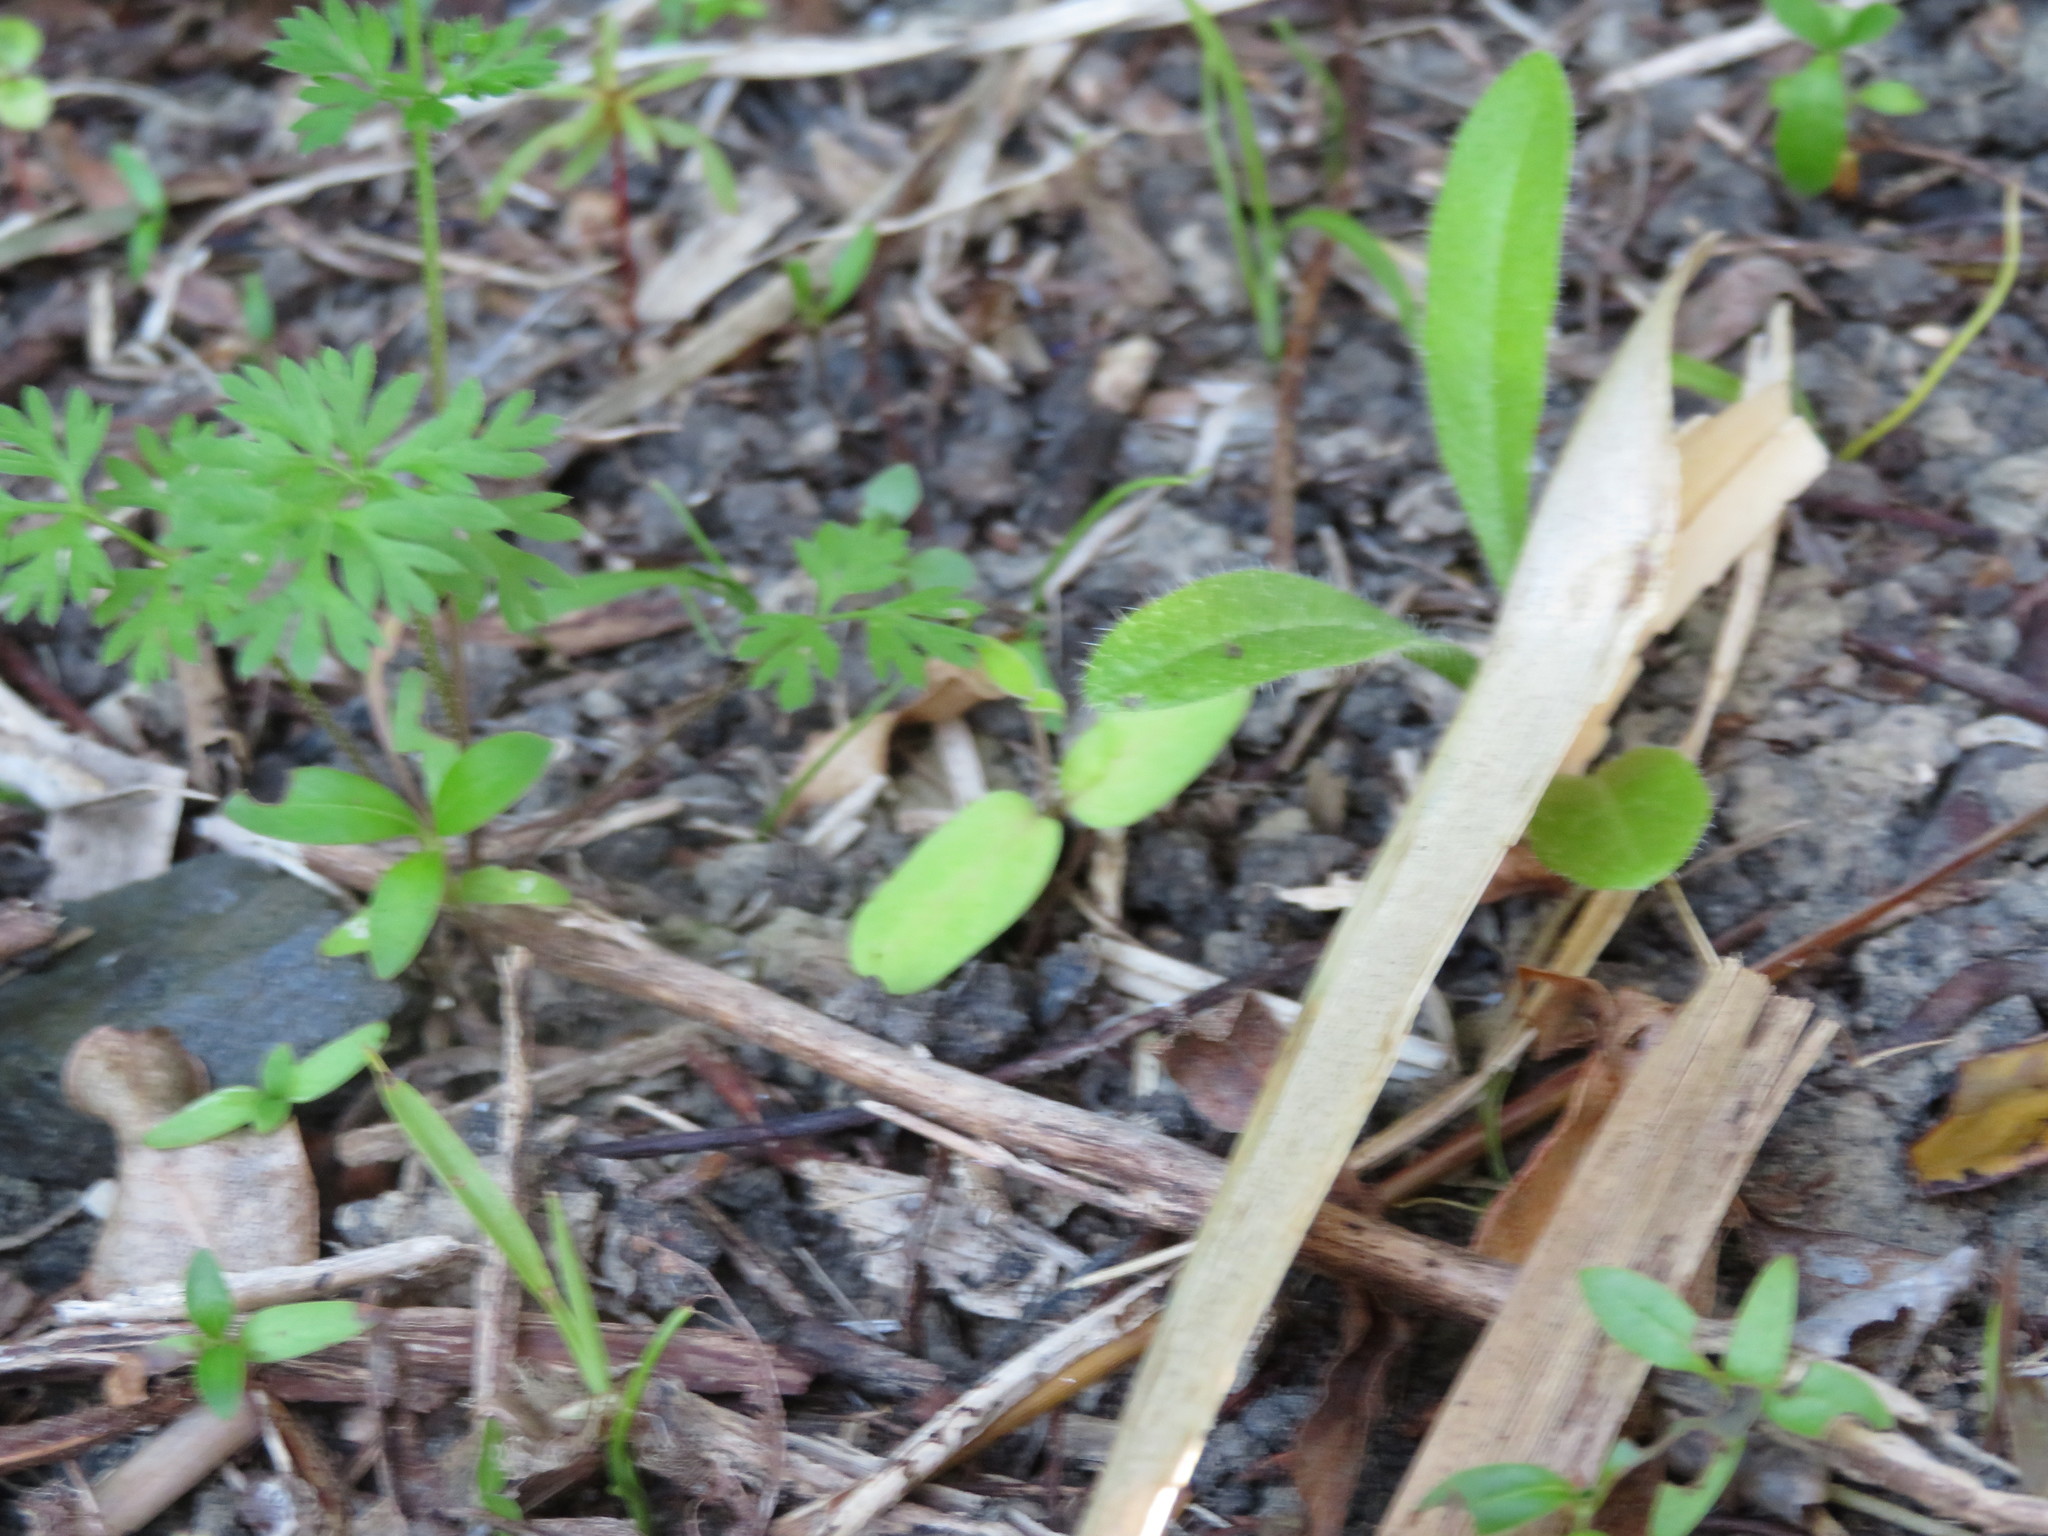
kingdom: Plantae
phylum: Tracheophyta
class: Magnoliopsida
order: Asterales
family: Asteraceae
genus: Helminthotheca
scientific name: Helminthotheca echioides
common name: Ox-tongue
